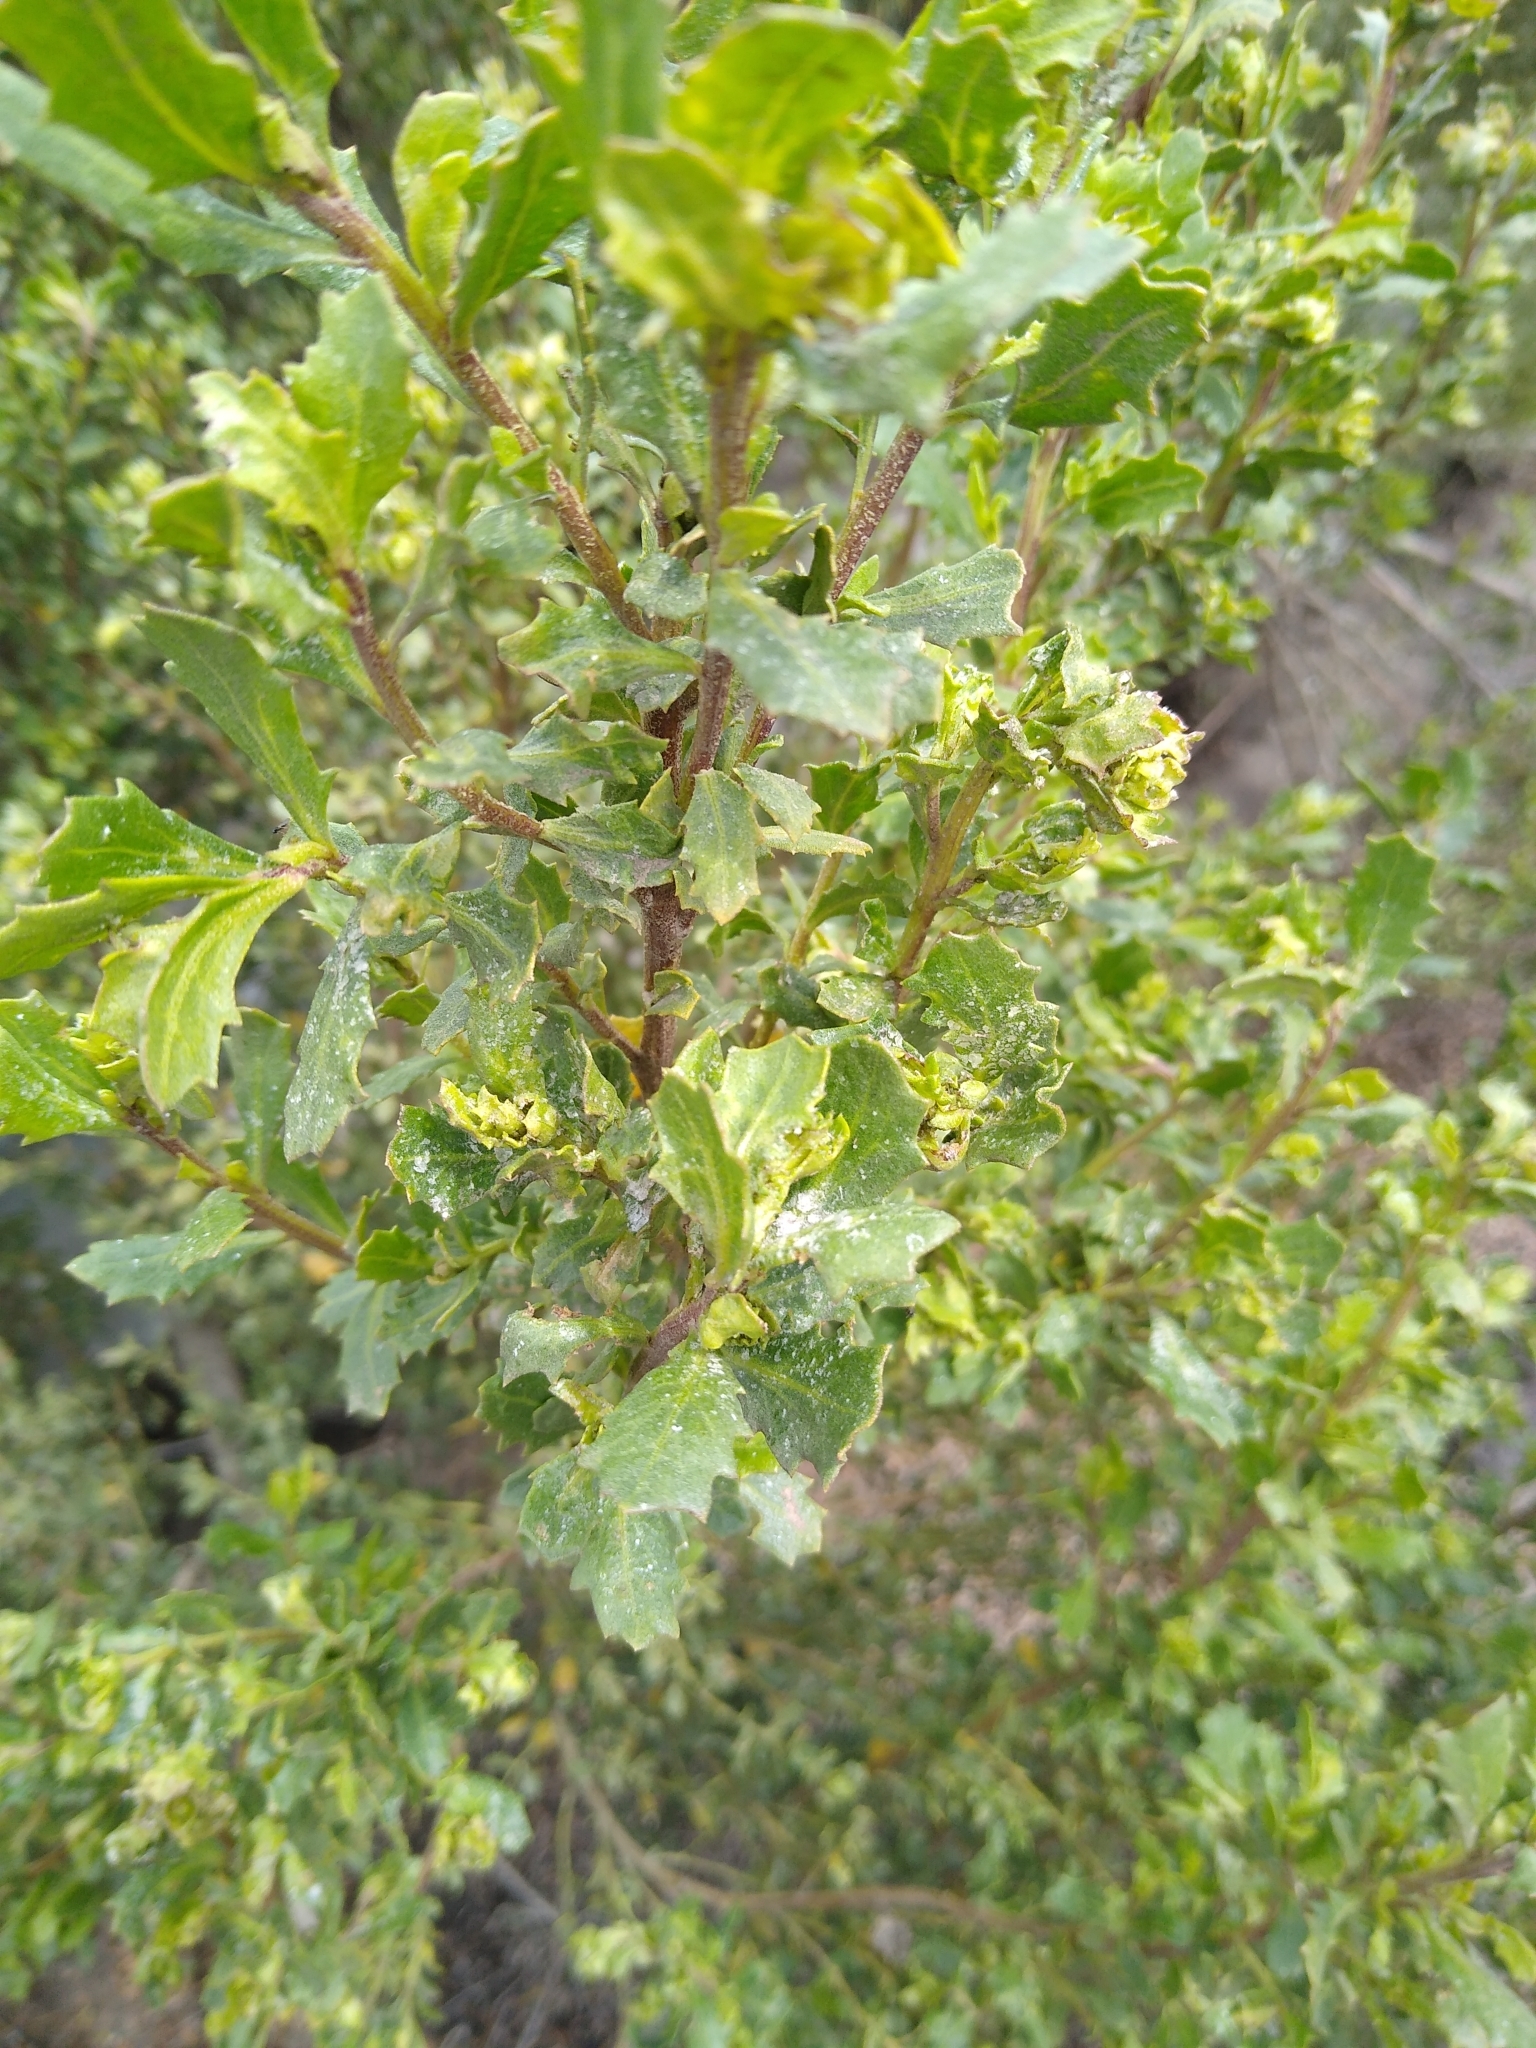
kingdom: Plantae
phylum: Tracheophyta
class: Magnoliopsida
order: Asterales
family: Asteraceae
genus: Baccharis
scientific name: Baccharis pilularis
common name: Coyotebrush
